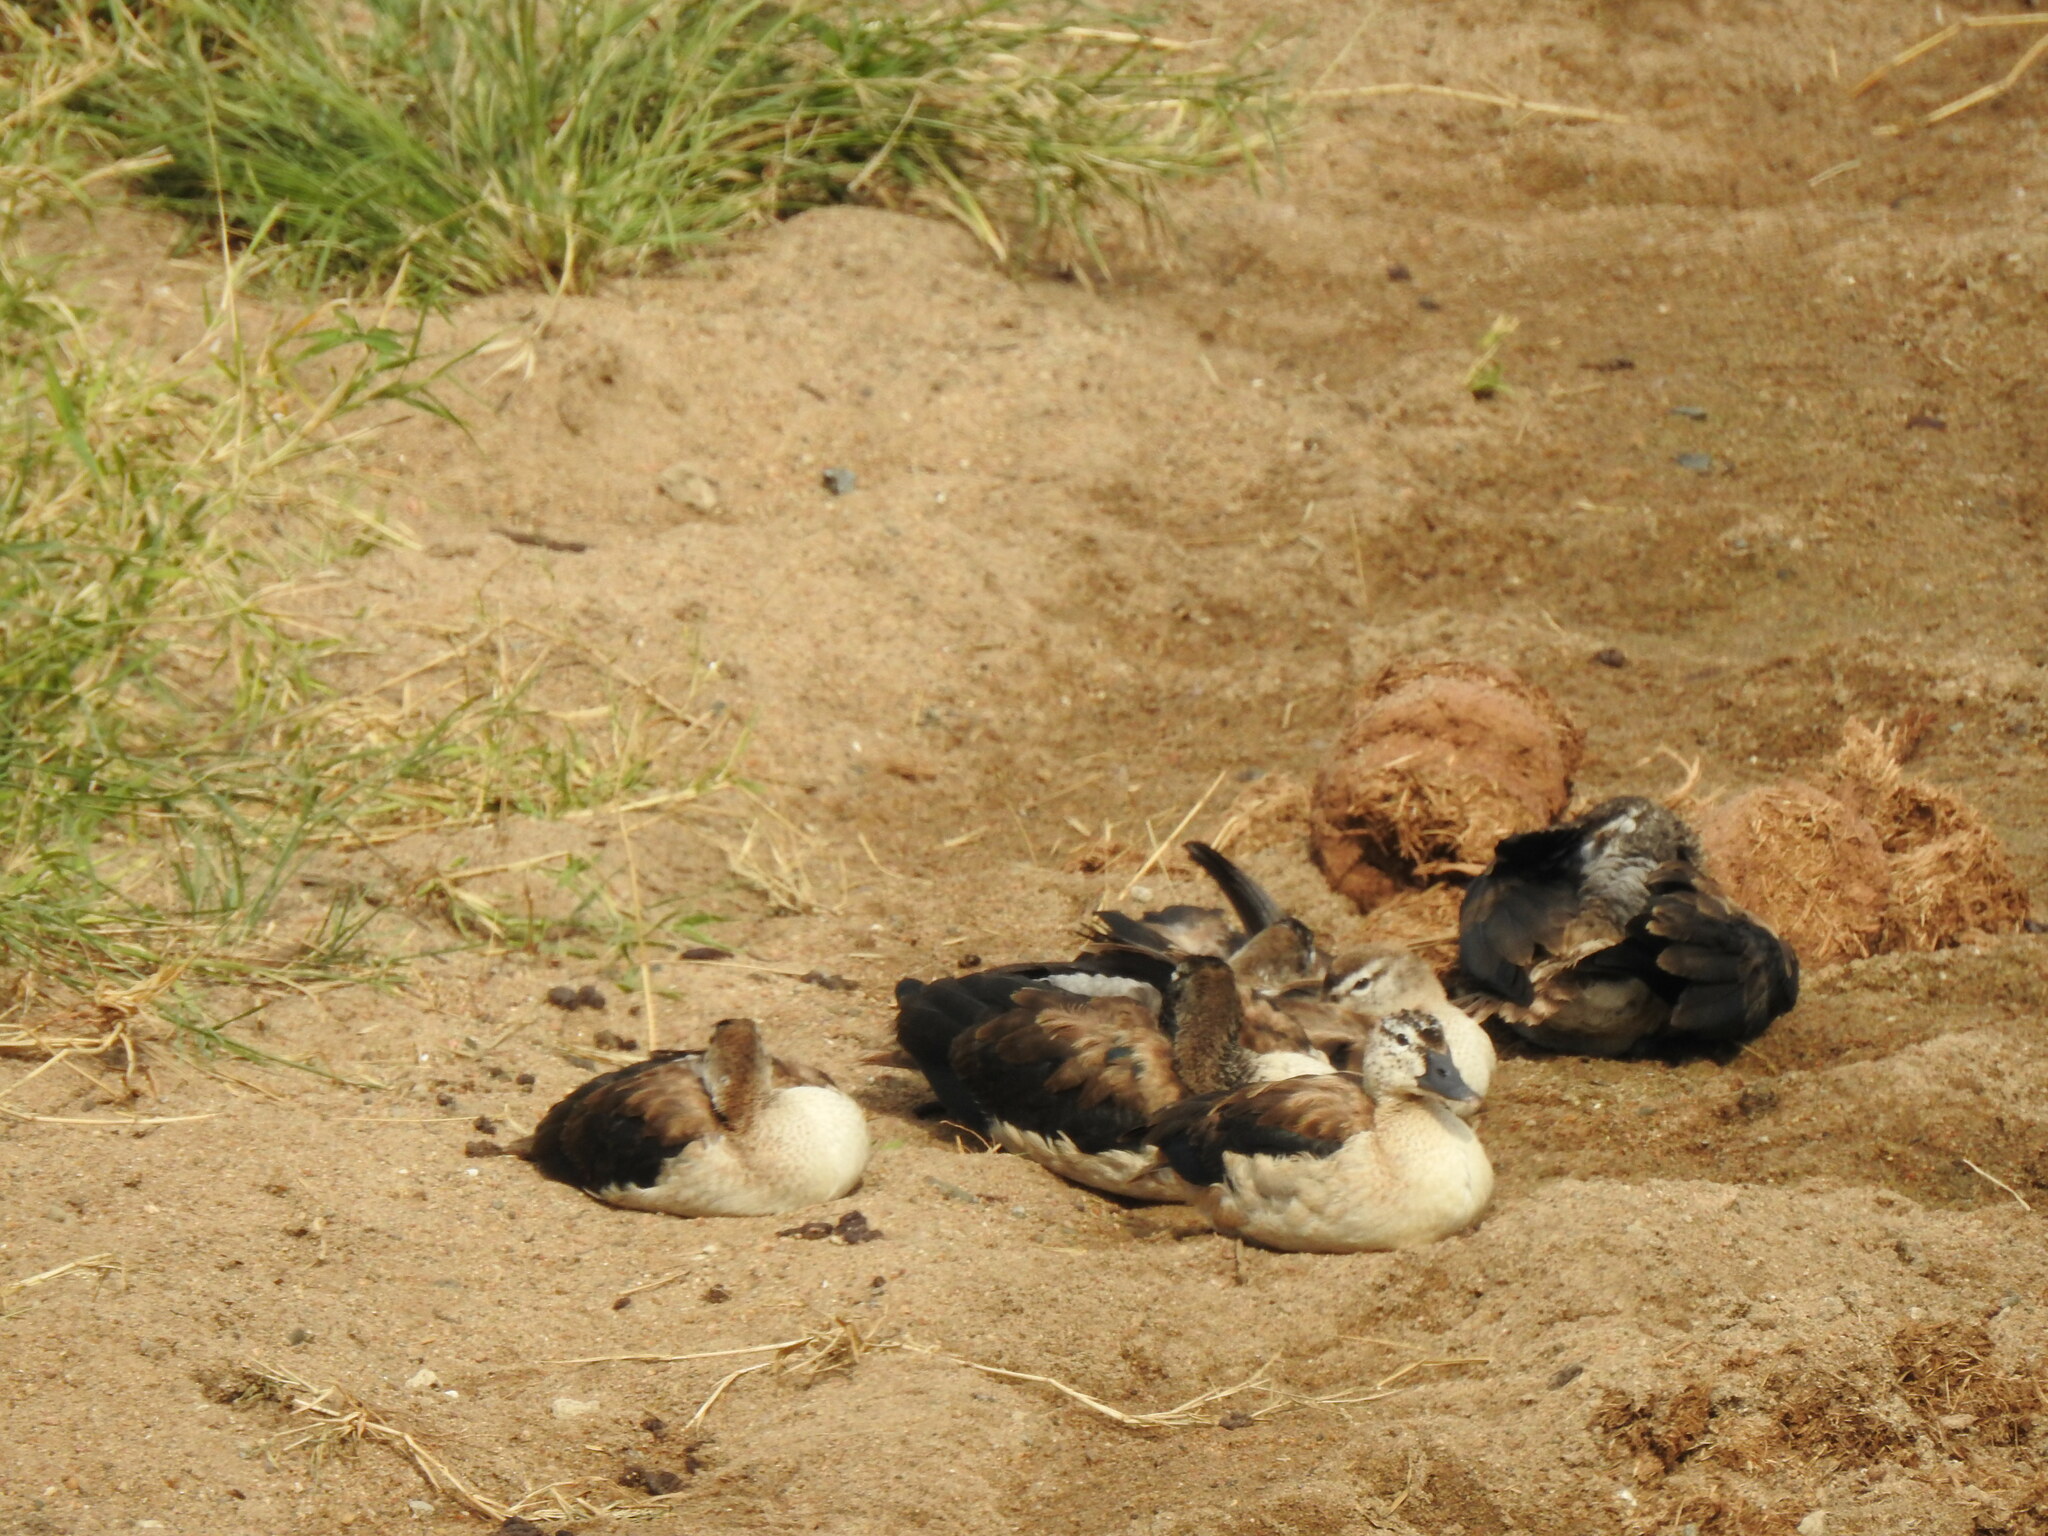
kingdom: Animalia
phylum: Chordata
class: Aves
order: Anseriformes
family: Anatidae
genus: Sarkidiornis
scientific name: Sarkidiornis melanotos
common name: Comb duck
